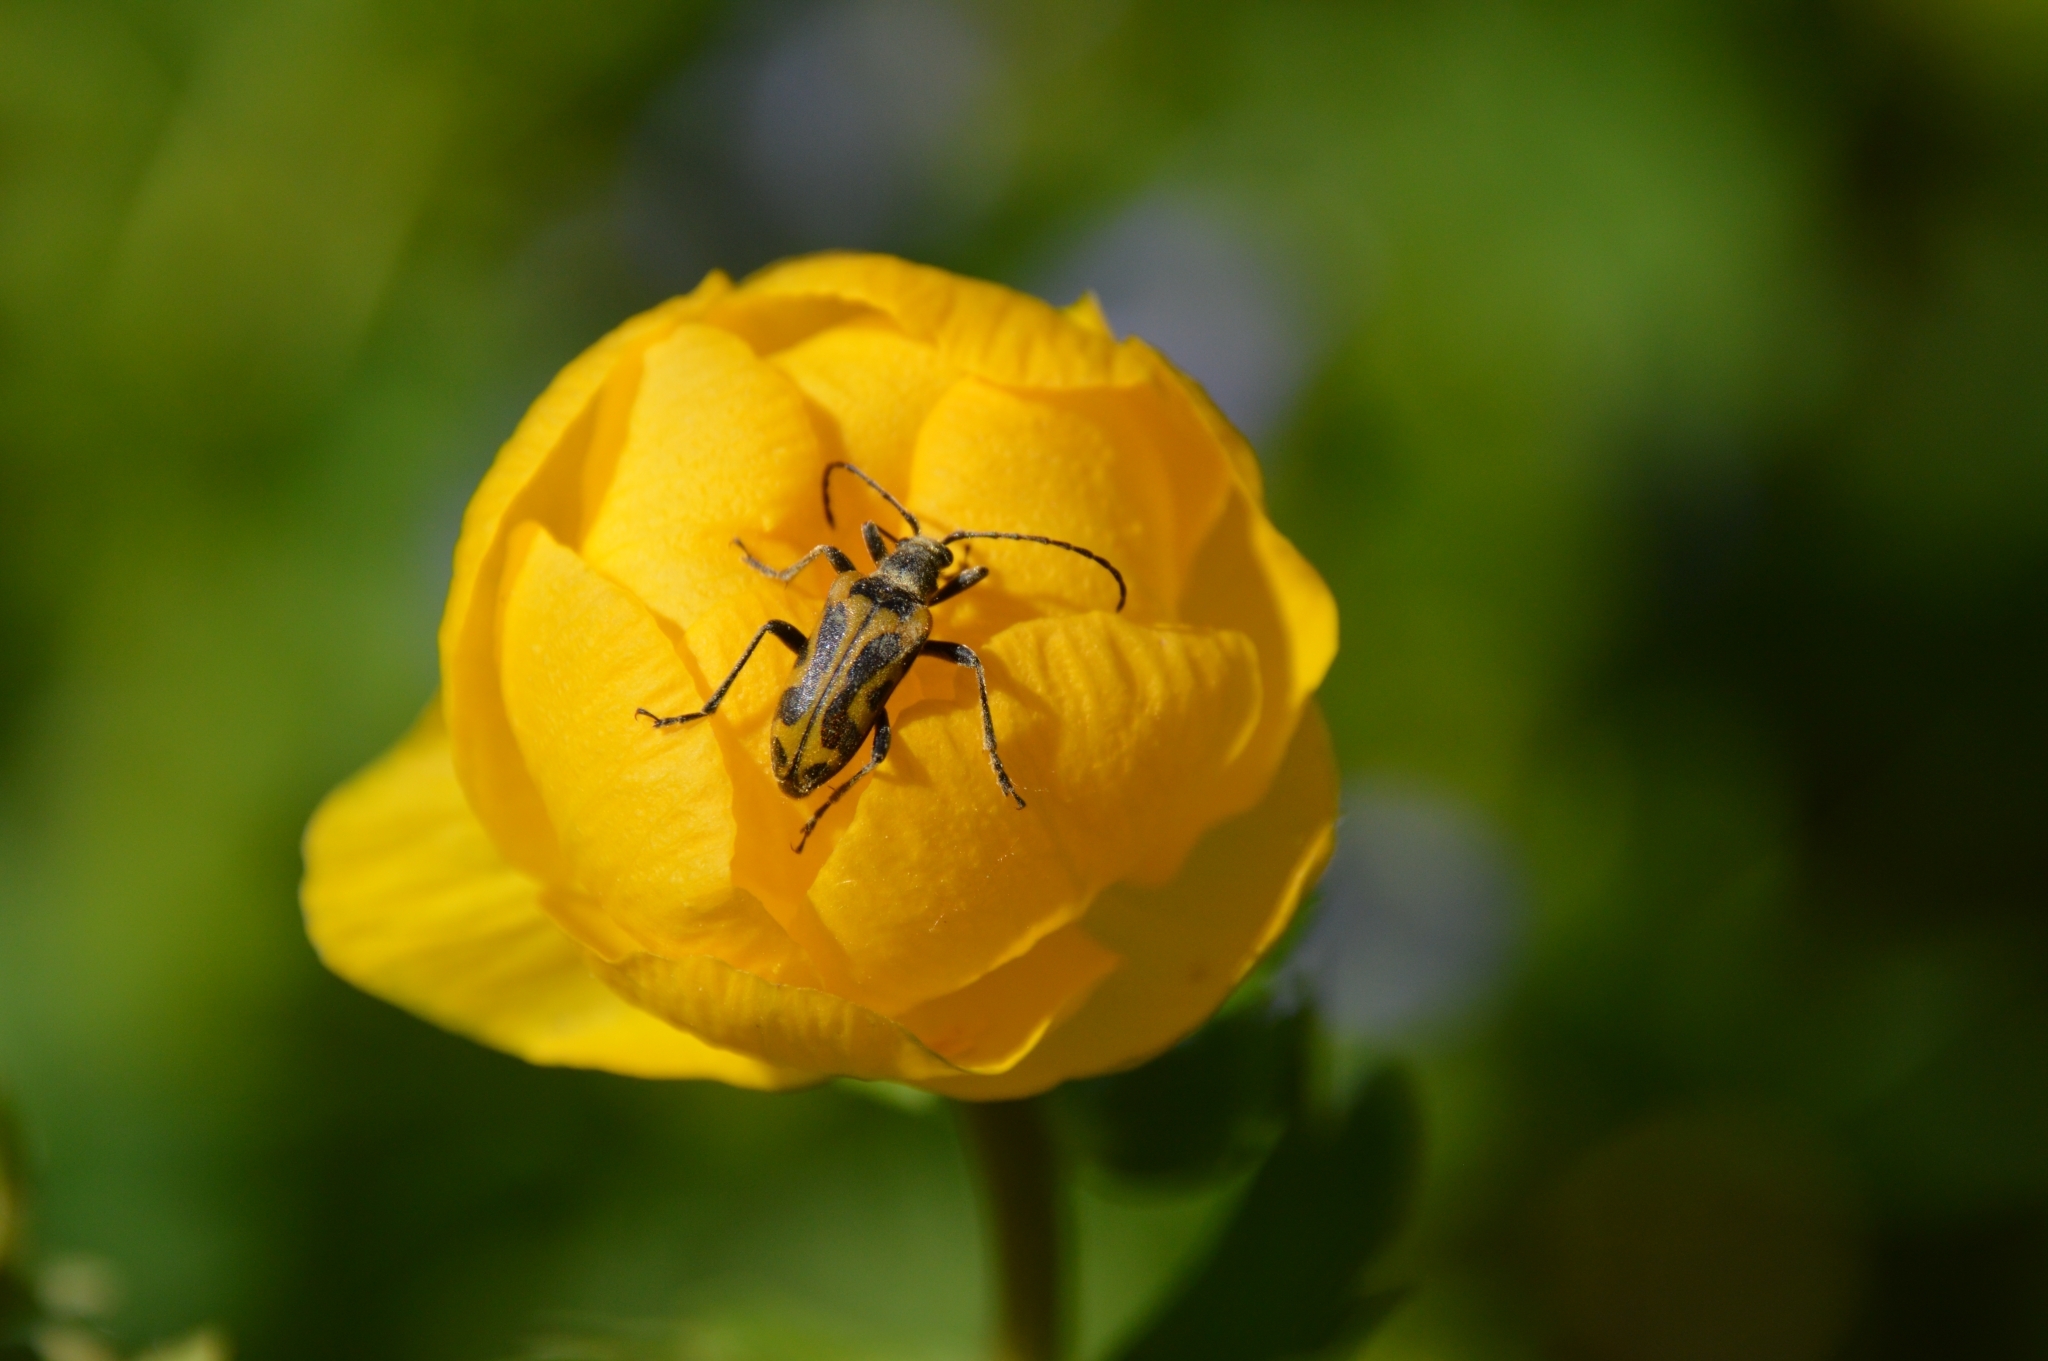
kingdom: Animalia
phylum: Arthropoda
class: Insecta
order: Coleoptera
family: Cerambycidae
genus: Brachyta
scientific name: Brachyta interrogationis
